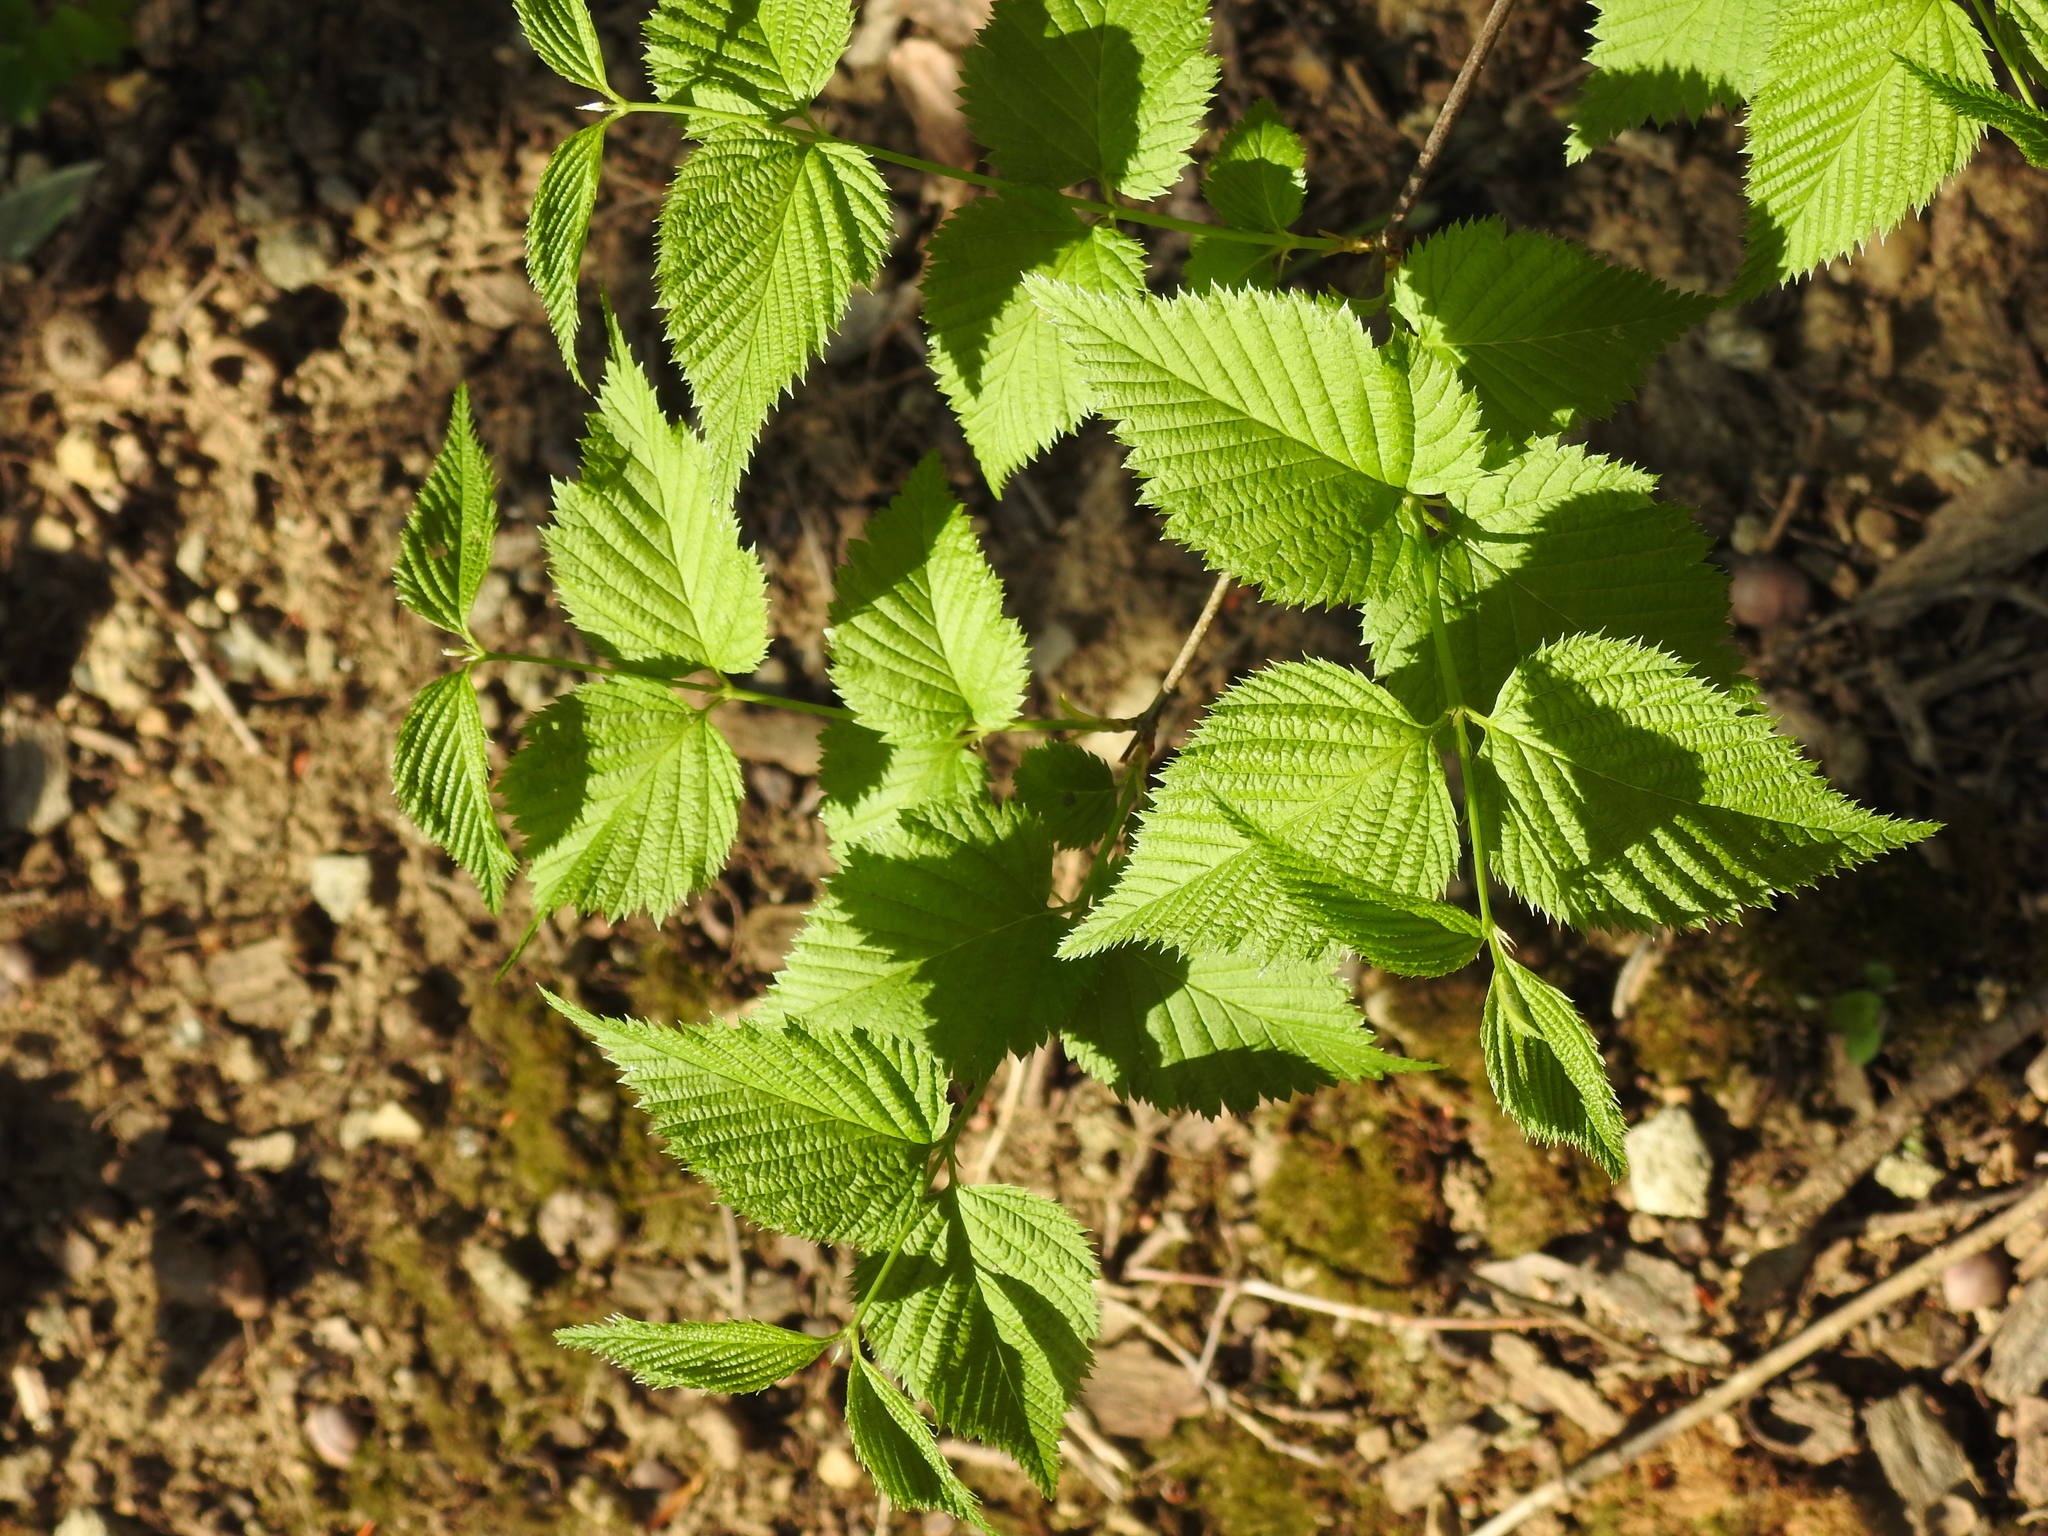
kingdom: Plantae
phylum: Tracheophyta
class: Magnoliopsida
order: Rosales
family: Rosaceae
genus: Rhodotypos
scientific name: Rhodotypos scandens
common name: Jetbead
